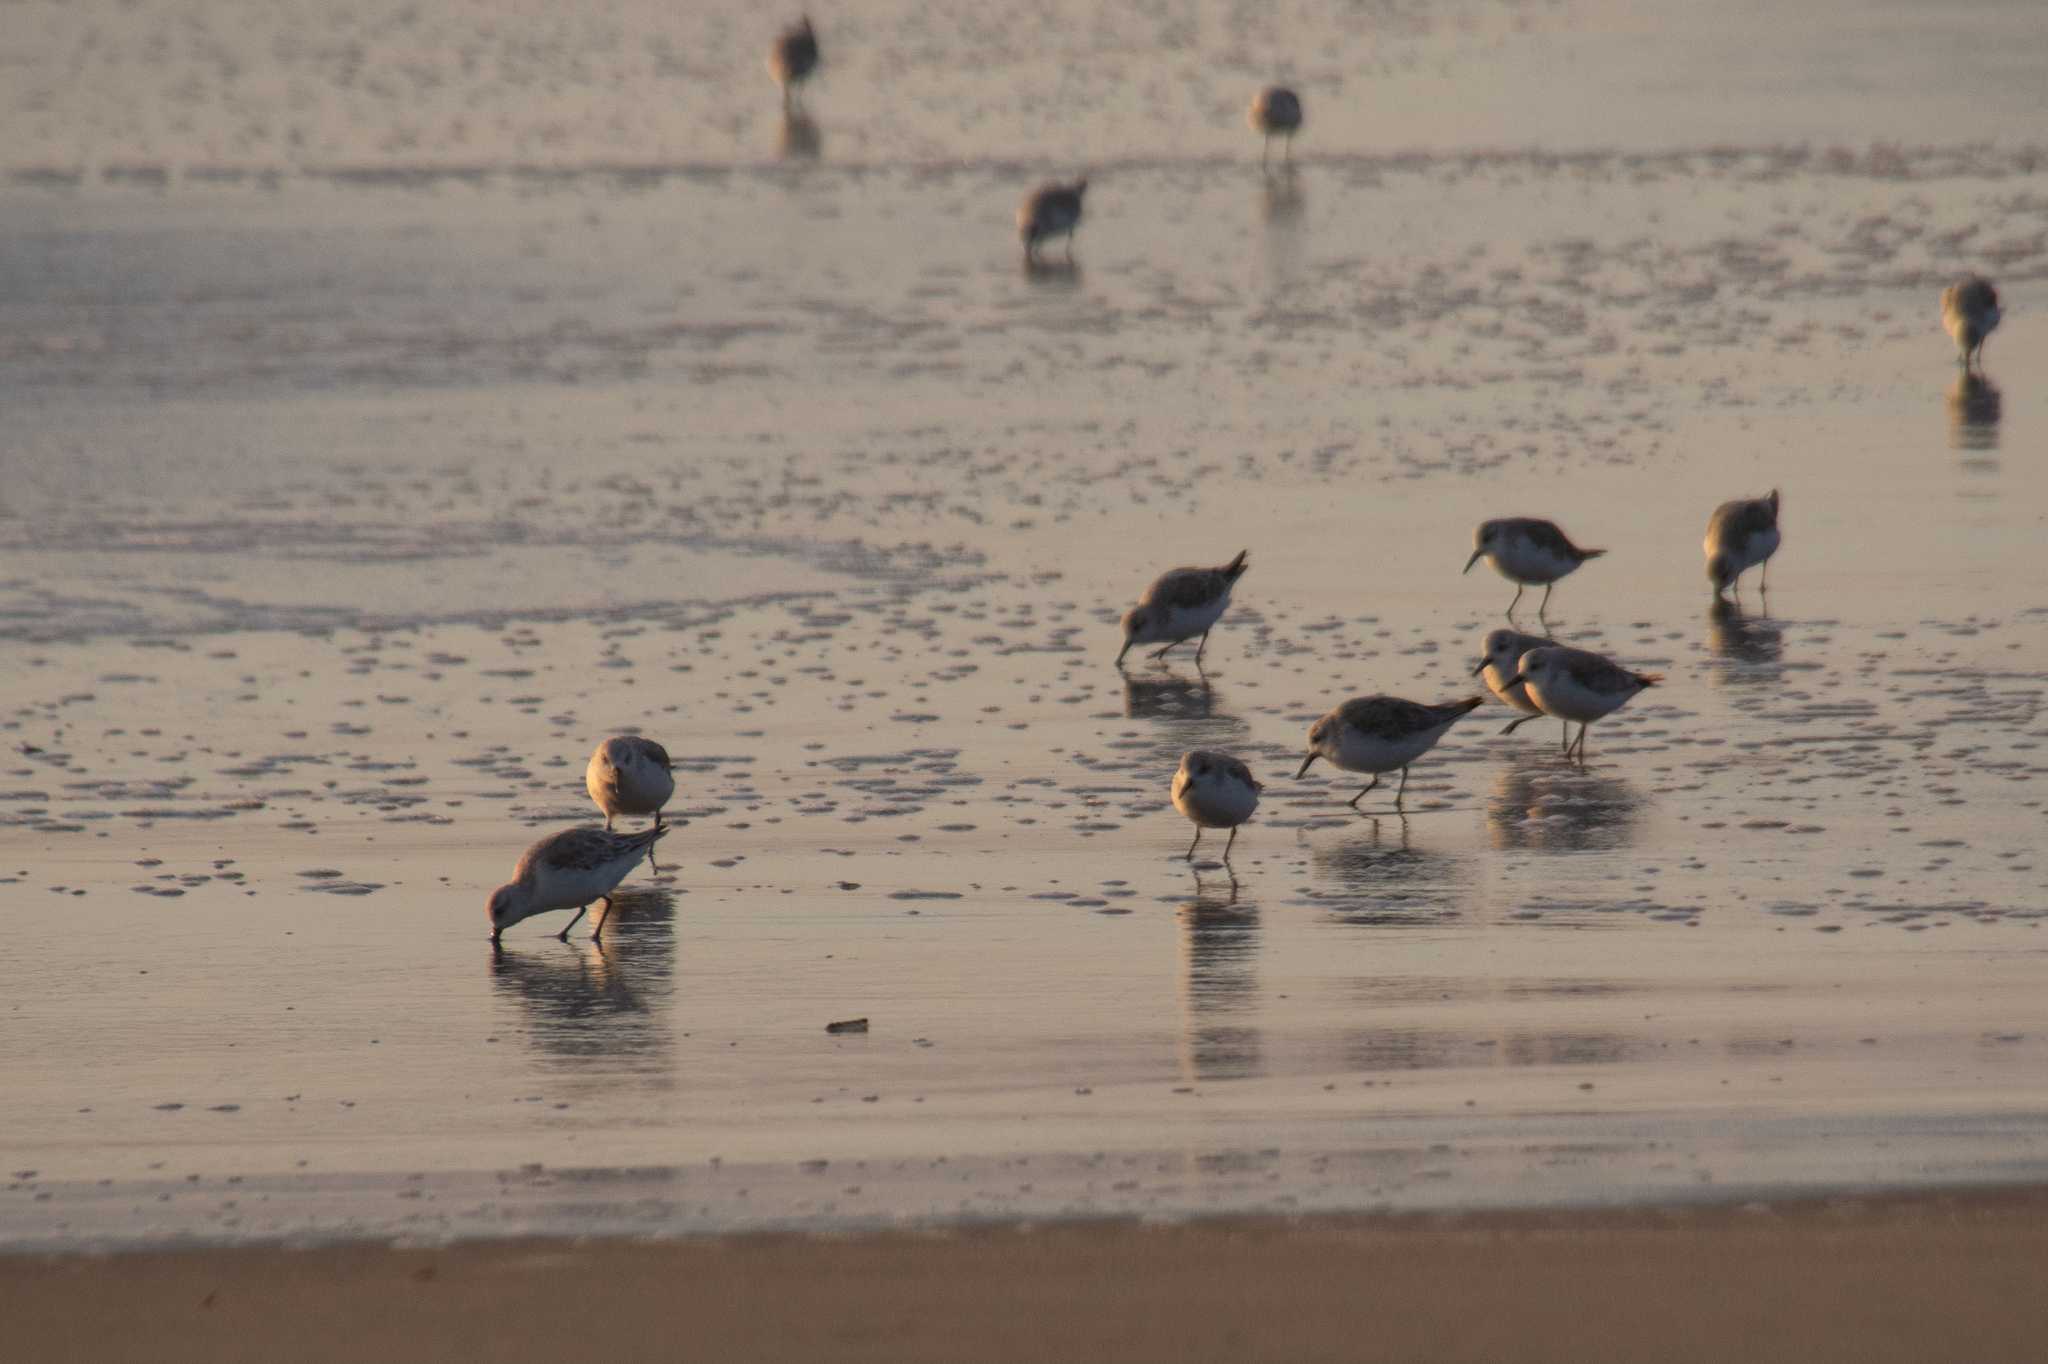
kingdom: Animalia
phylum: Chordata
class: Aves
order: Charadriiformes
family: Scolopacidae
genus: Calidris
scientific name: Calidris alba
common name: Sanderling
